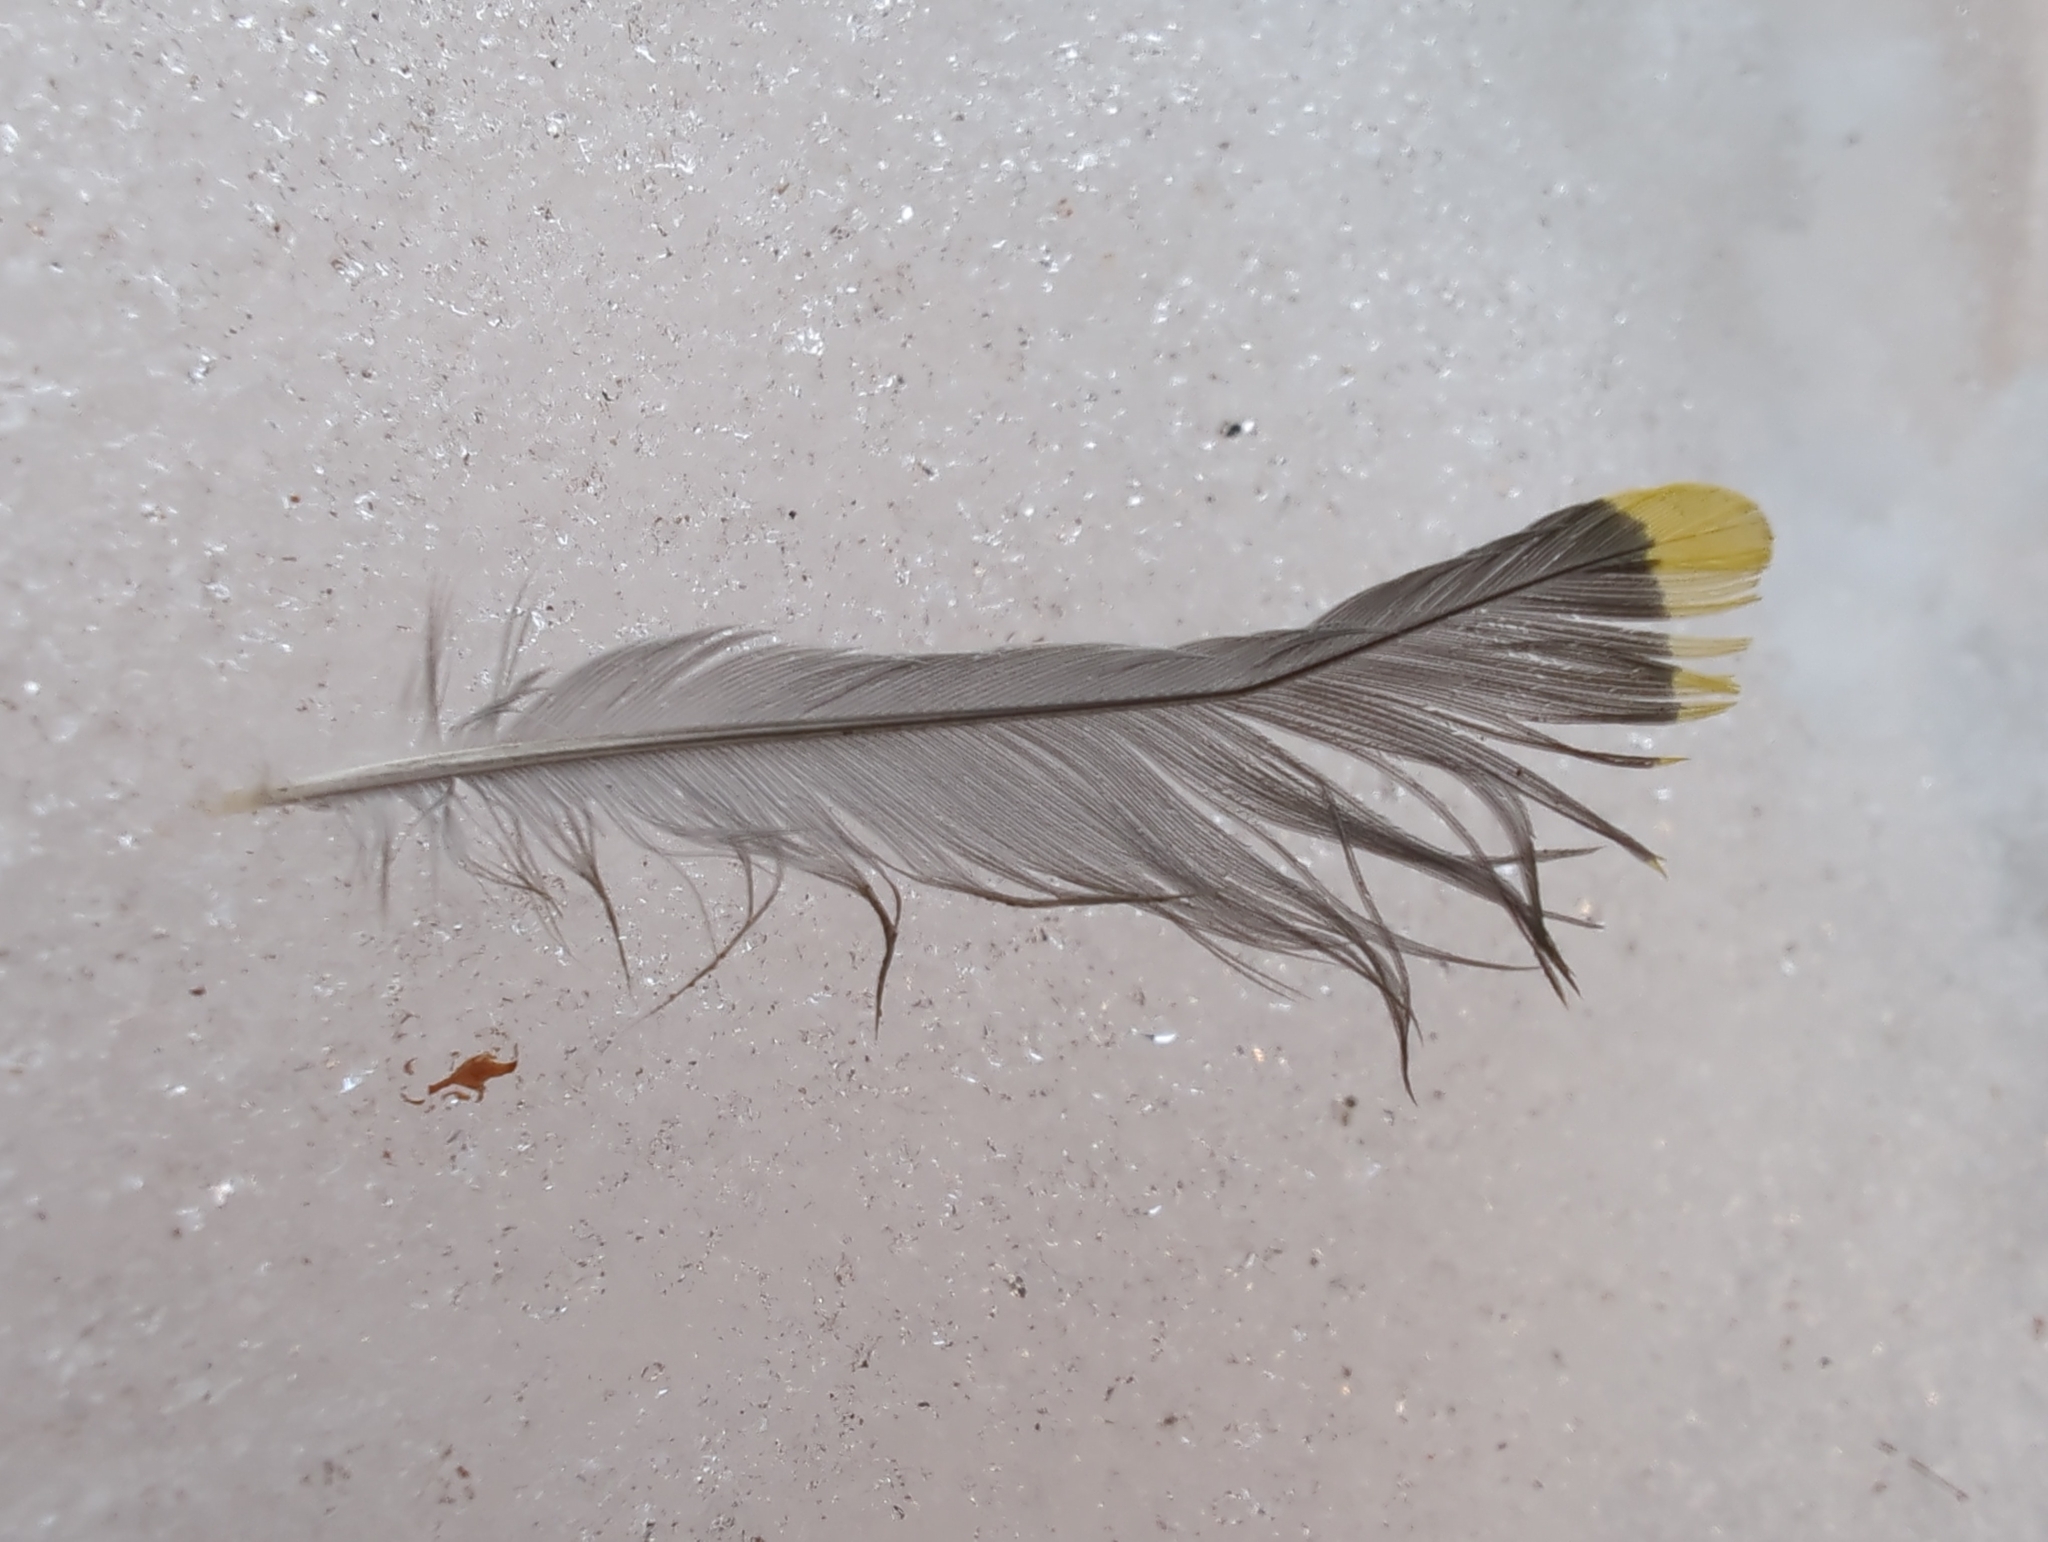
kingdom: Animalia
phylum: Chordata
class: Aves
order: Passeriformes
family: Bombycillidae
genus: Bombycilla
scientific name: Bombycilla garrulus
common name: Bohemian waxwing
